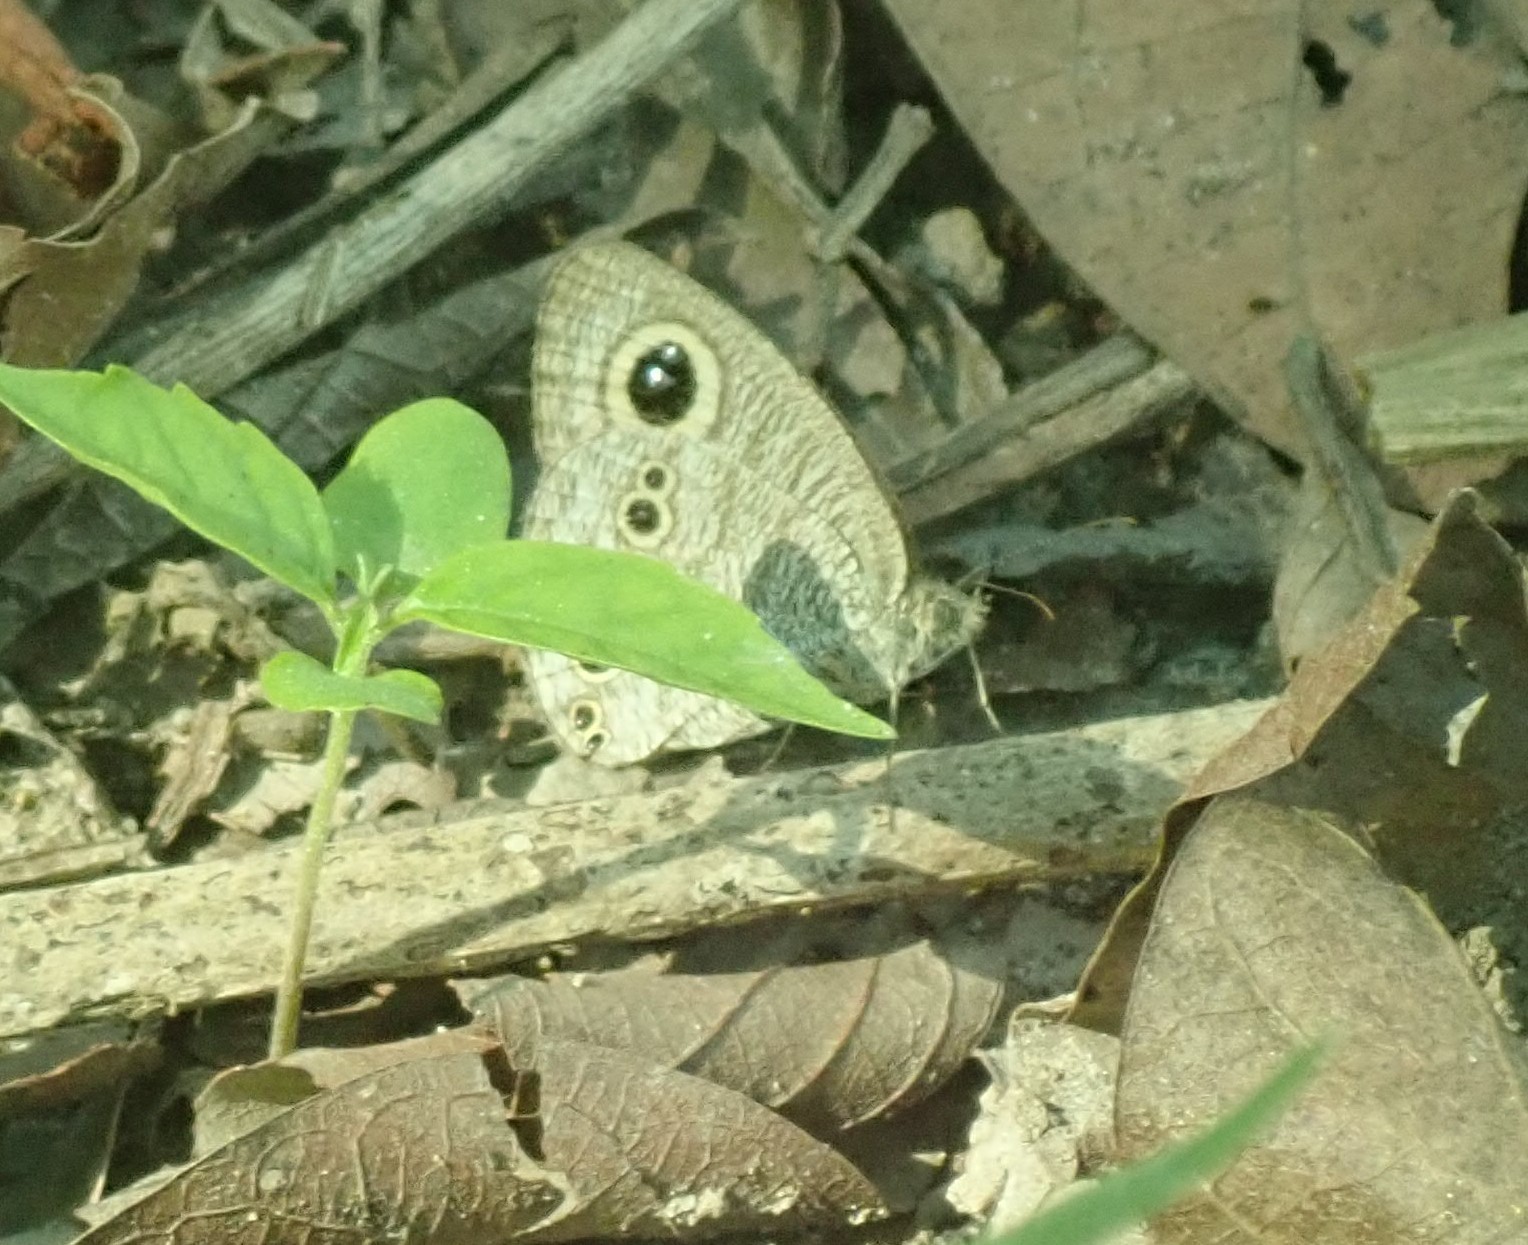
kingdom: Animalia
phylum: Arthropoda
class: Insecta
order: Lepidoptera
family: Nymphalidae
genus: Ypthima
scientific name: Ypthima baldus
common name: Common five-ring
